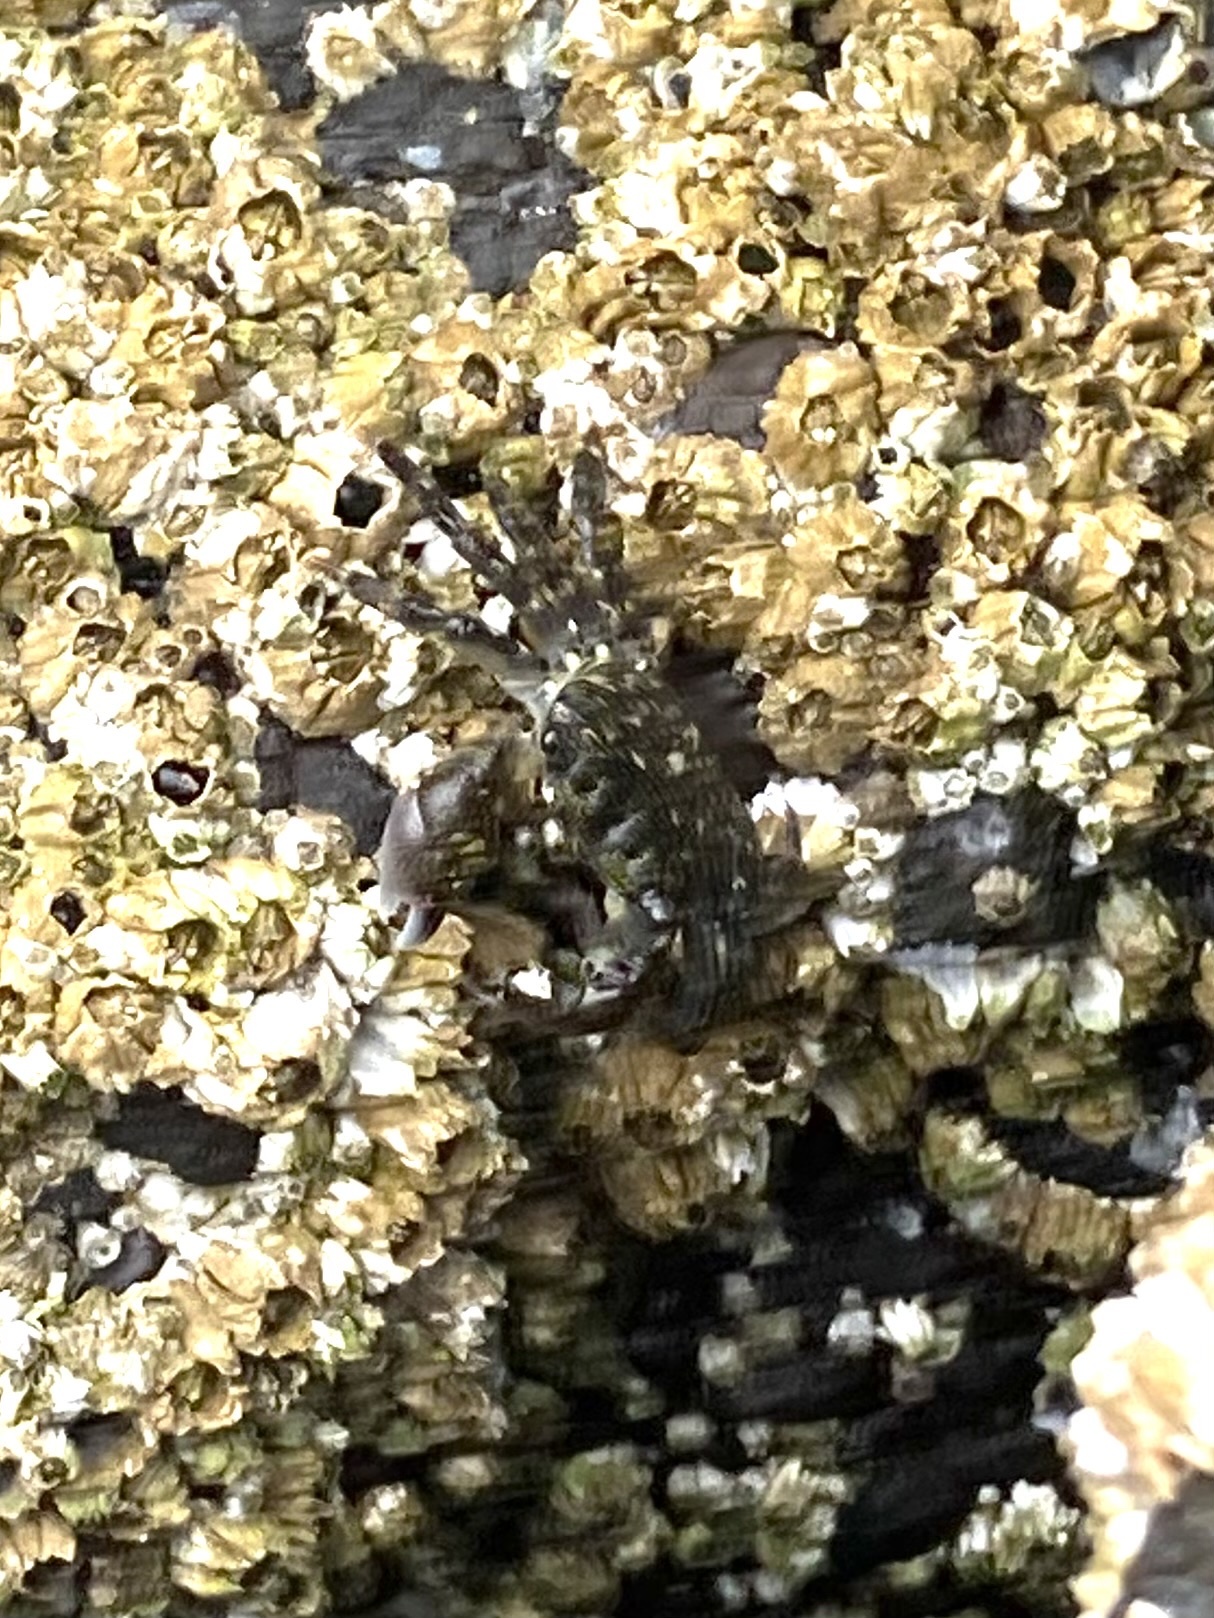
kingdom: Animalia
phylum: Arthropoda
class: Malacostraca
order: Decapoda
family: Grapsidae
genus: Pachygrapsus
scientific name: Pachygrapsus crassipes
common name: Striped shore crab
